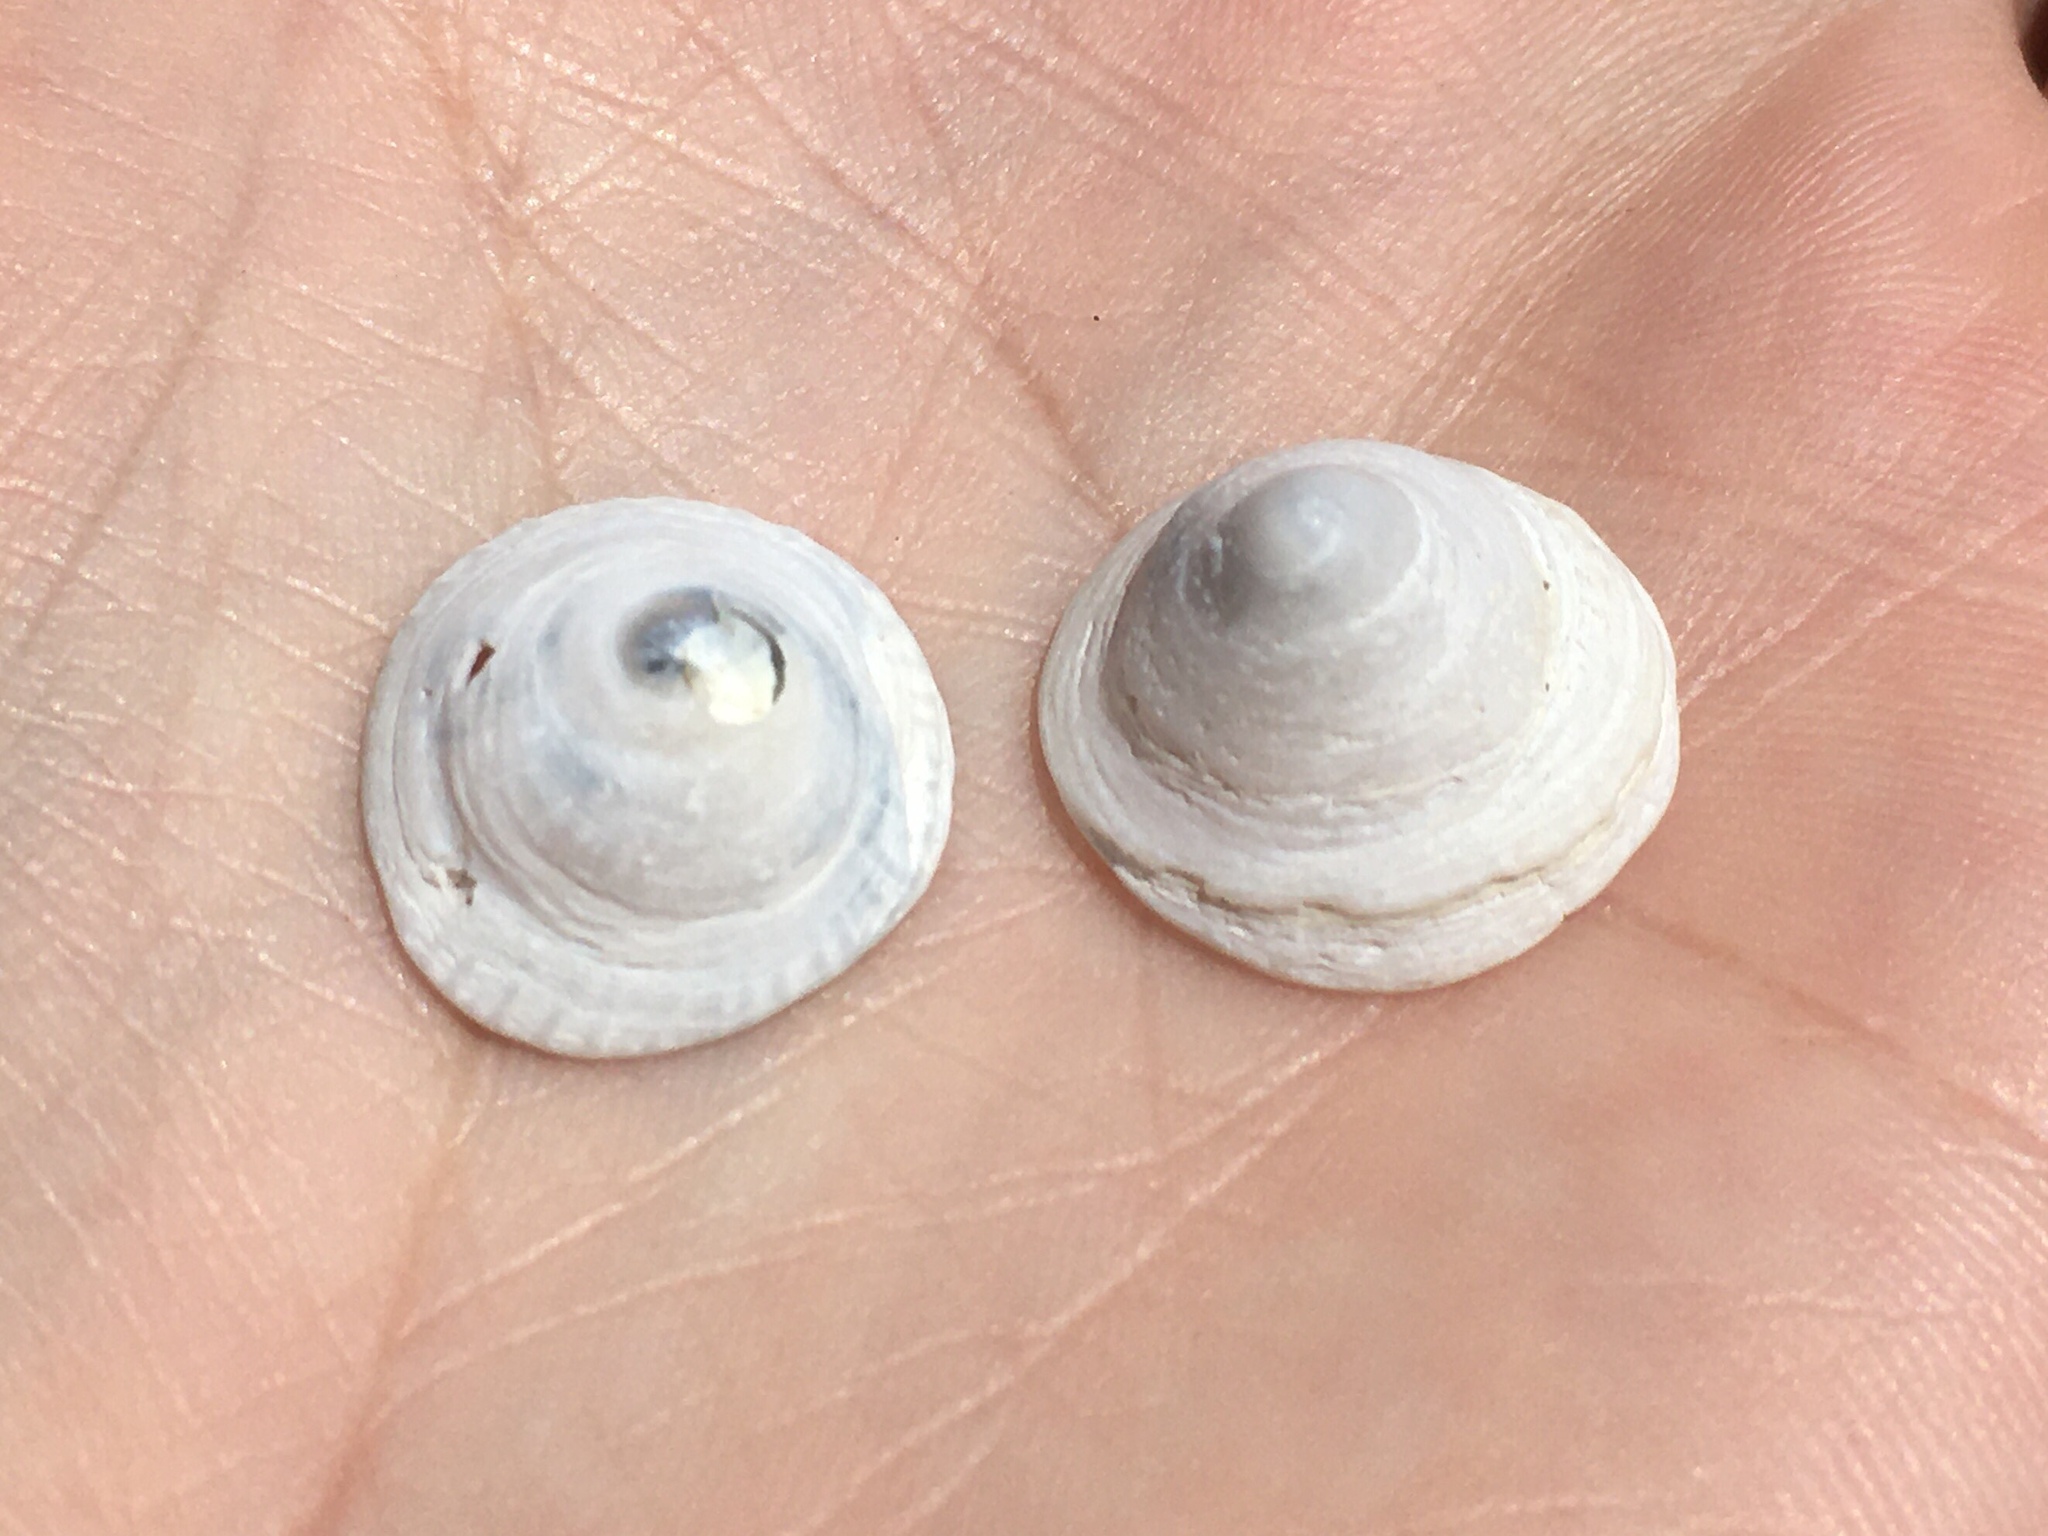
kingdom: Animalia
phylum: Mollusca
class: Gastropoda
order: Littorinimorpha
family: Calyptraeidae
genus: Trochita
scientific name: Trochita pileolus
